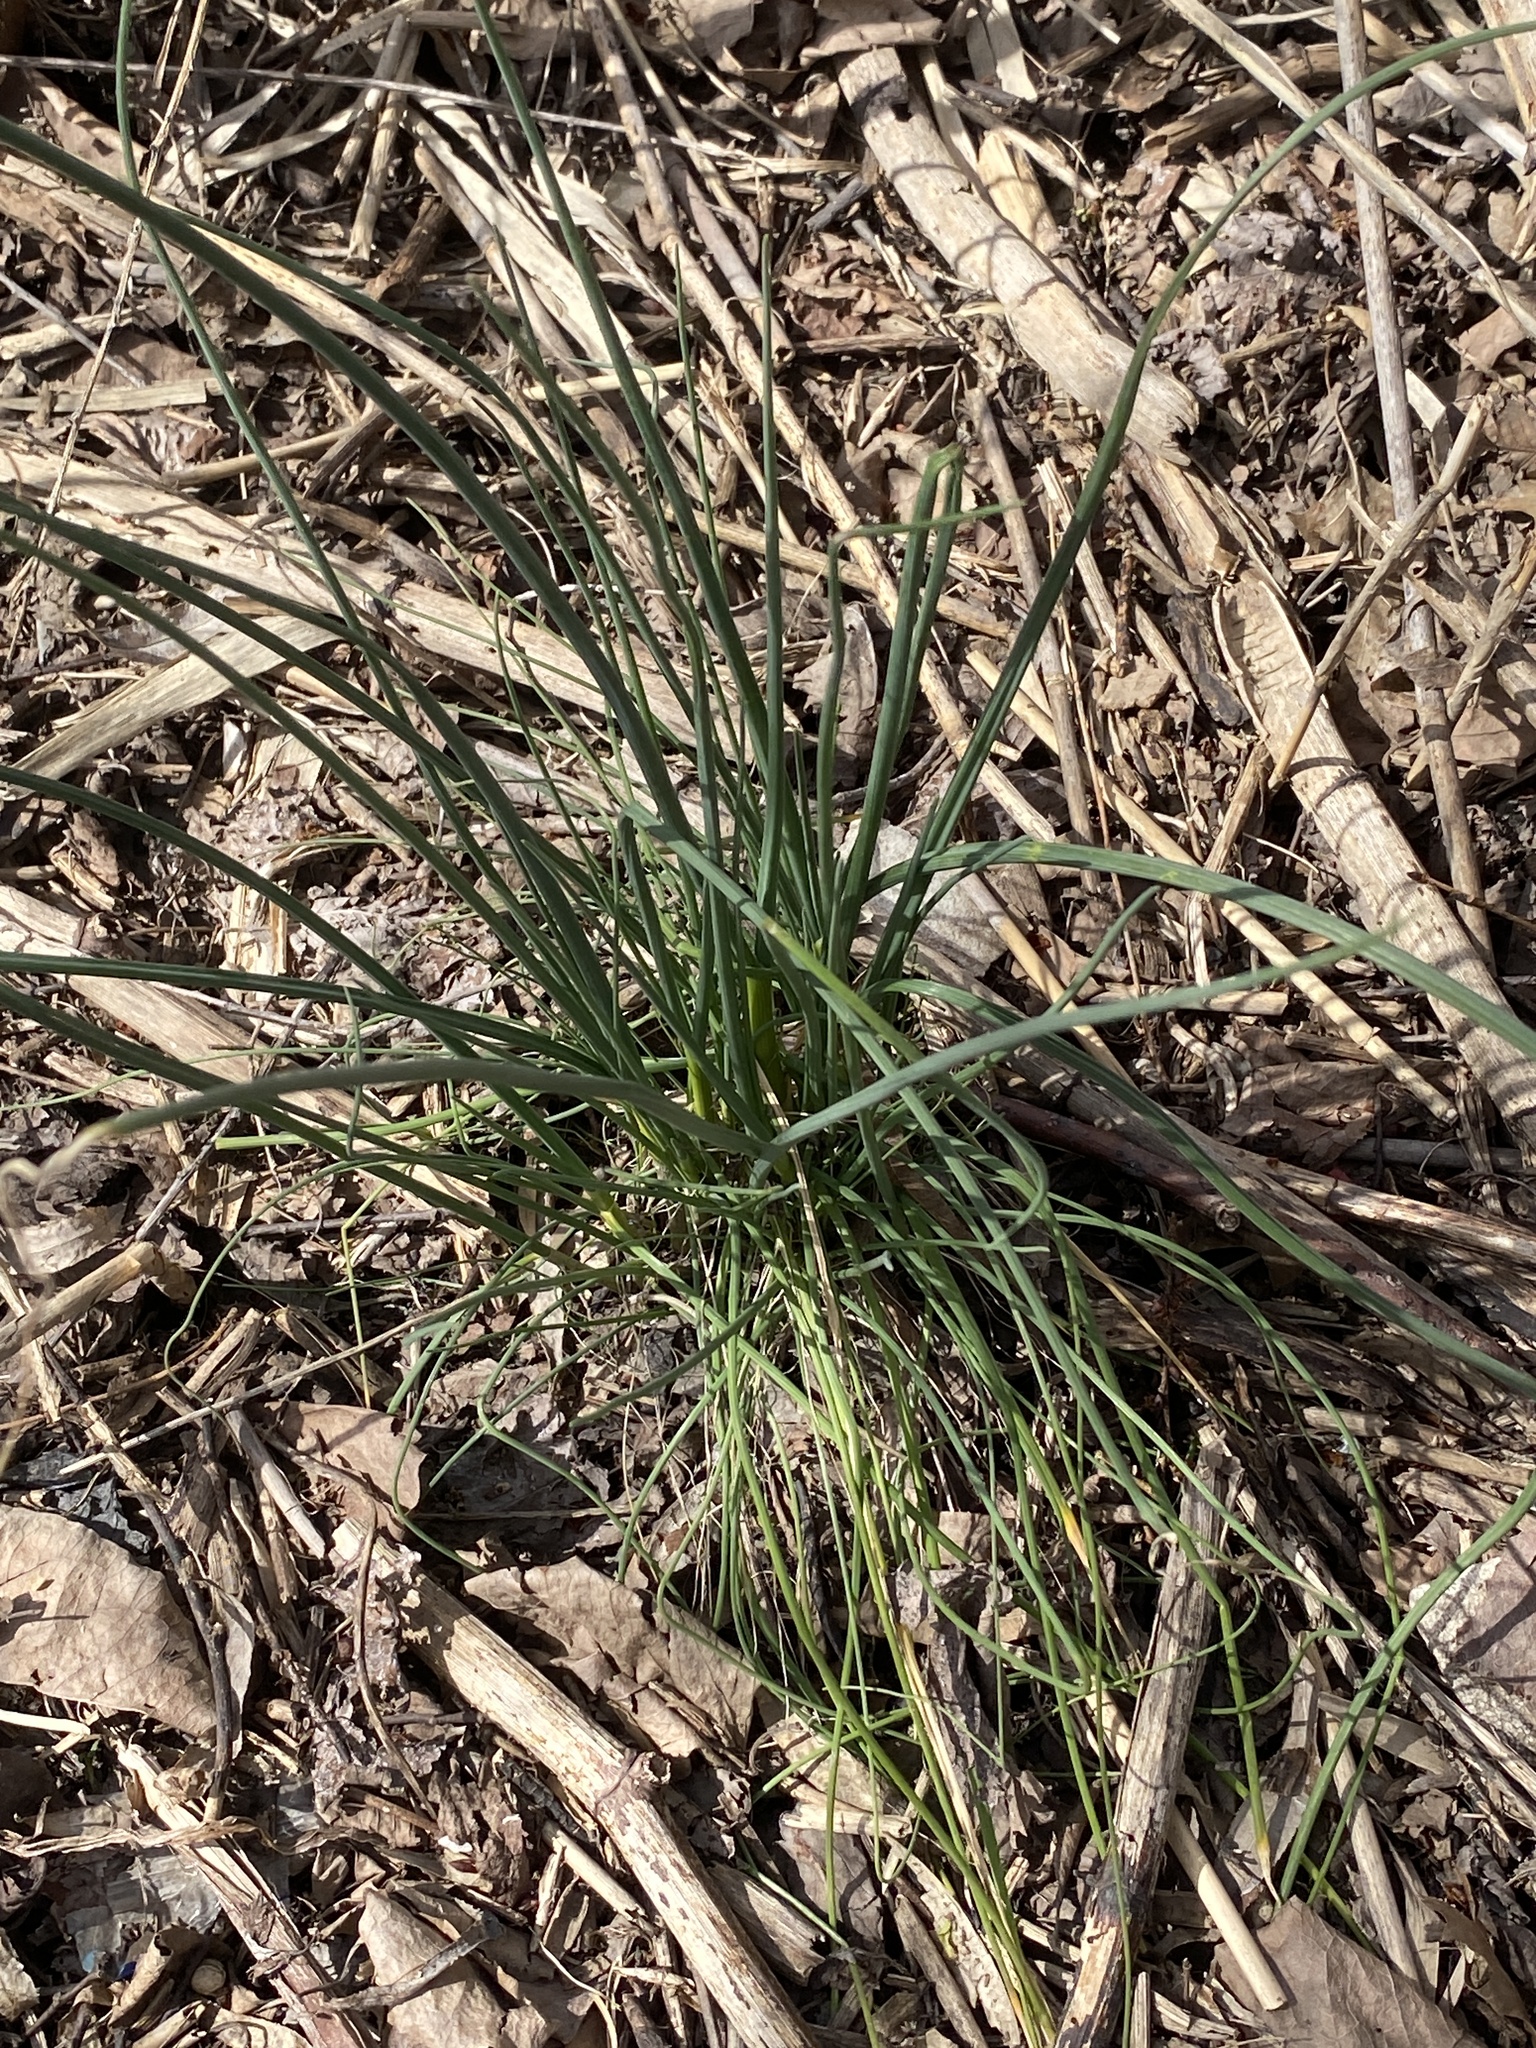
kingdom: Plantae
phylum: Tracheophyta
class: Liliopsida
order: Asparagales
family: Amaryllidaceae
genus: Allium
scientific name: Allium vineale
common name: Crow garlic
